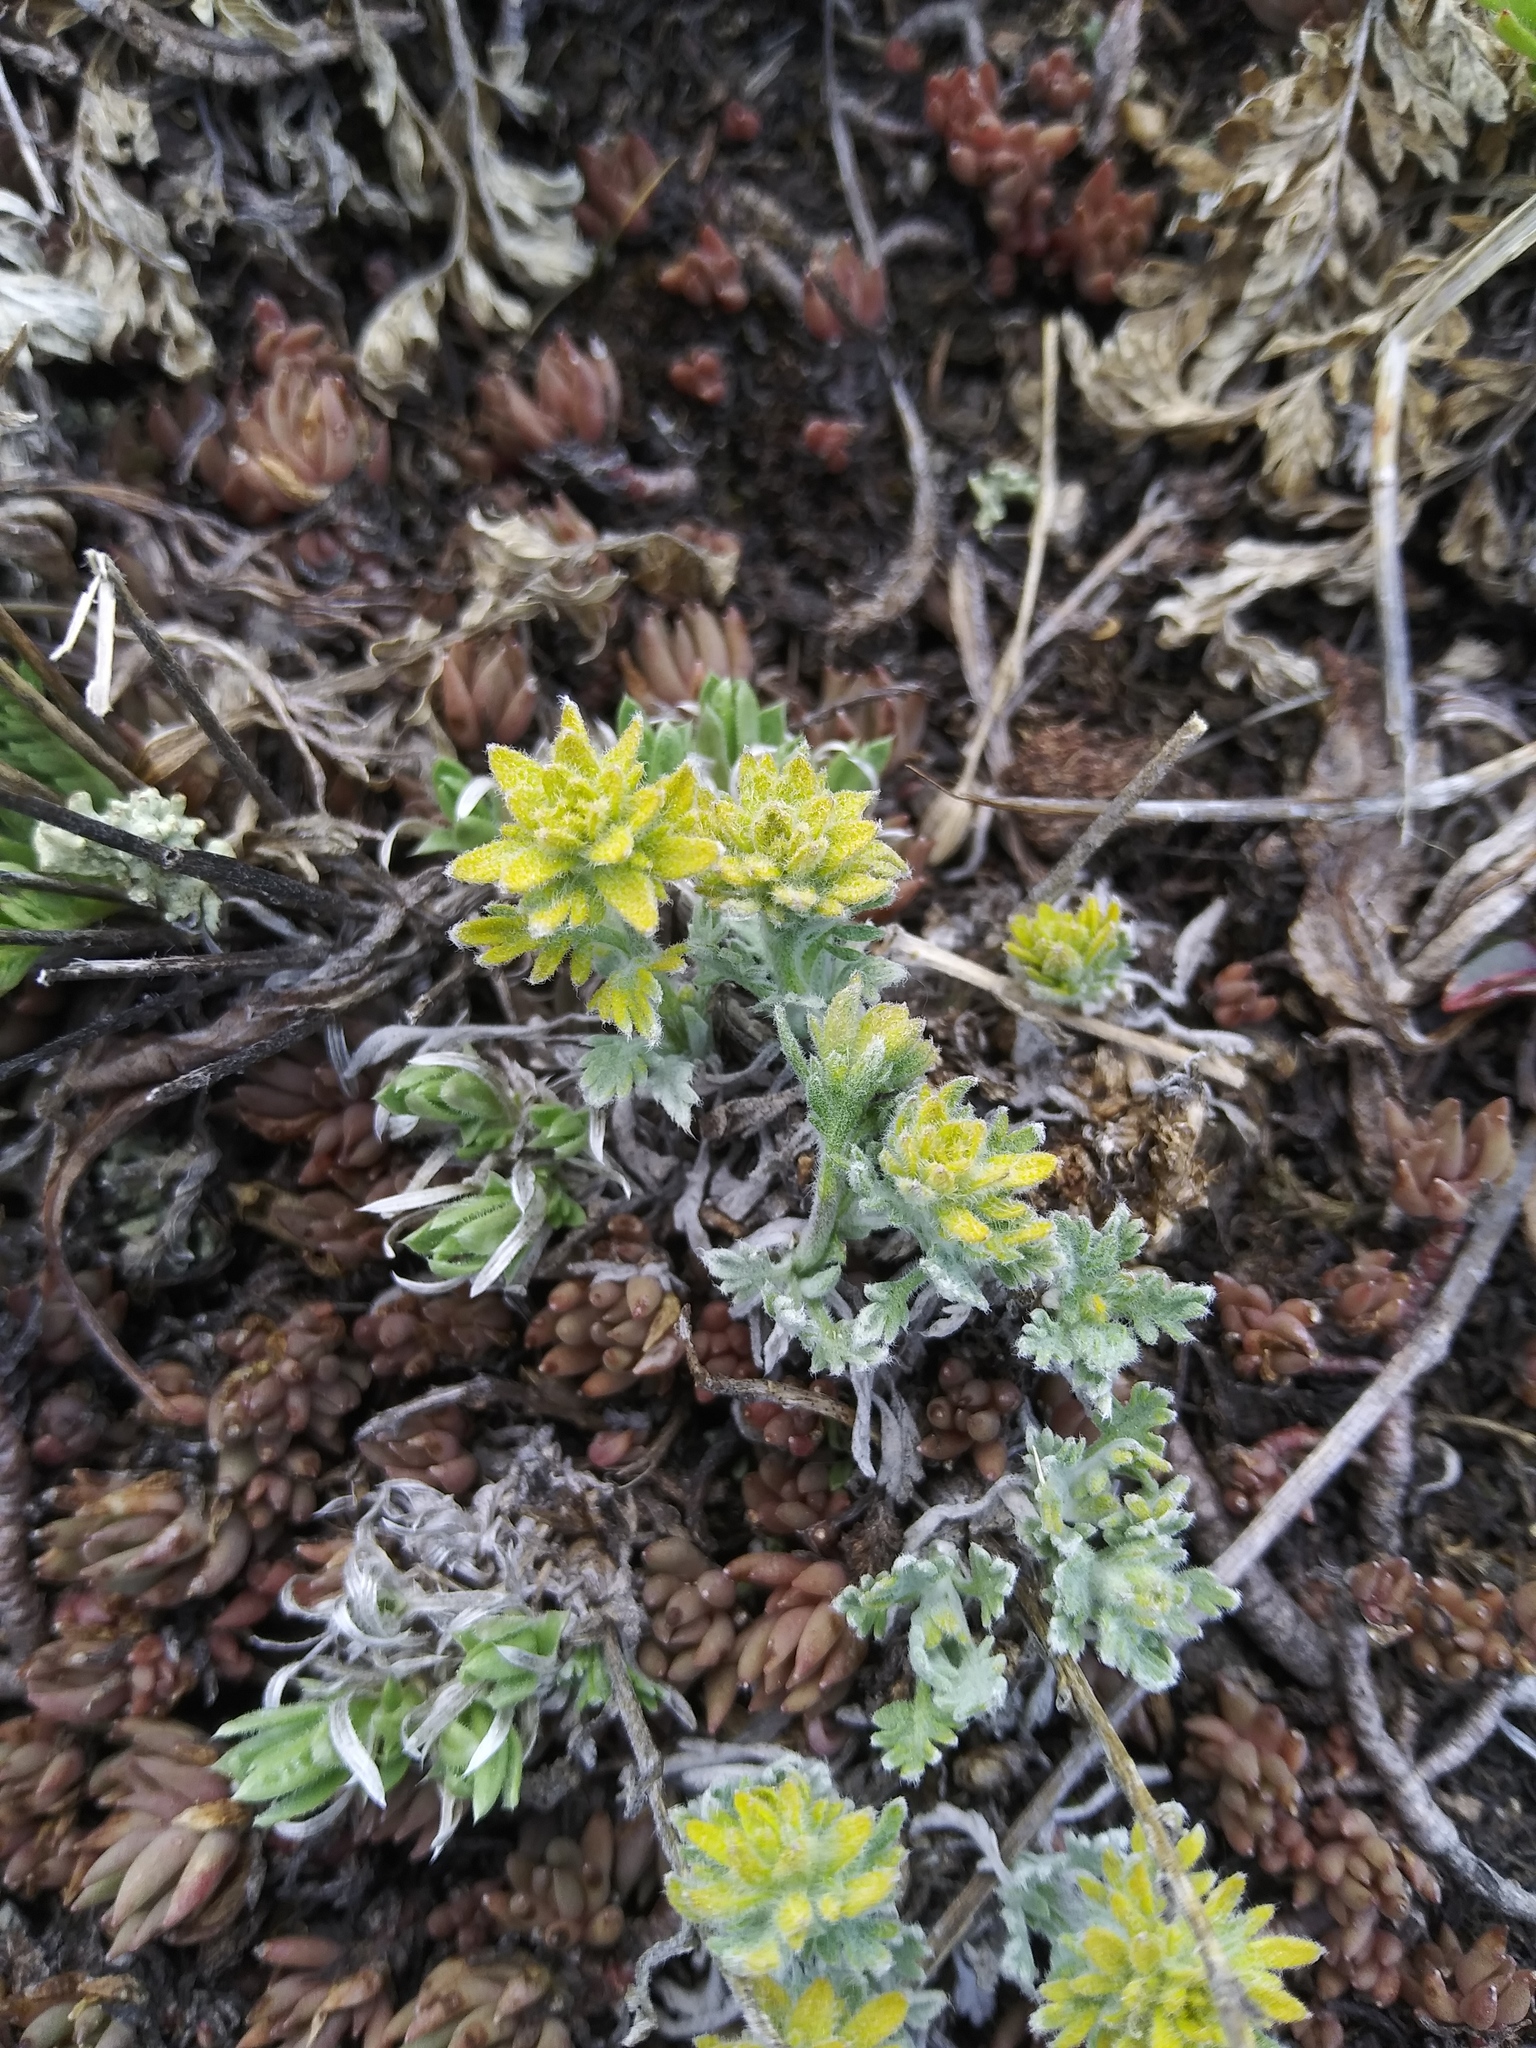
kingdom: Plantae
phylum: Tracheophyta
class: Magnoliopsida
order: Brassicales
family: Brassicaceae
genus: Smelowskia
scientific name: Smelowskia americana
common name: American false candytuft
